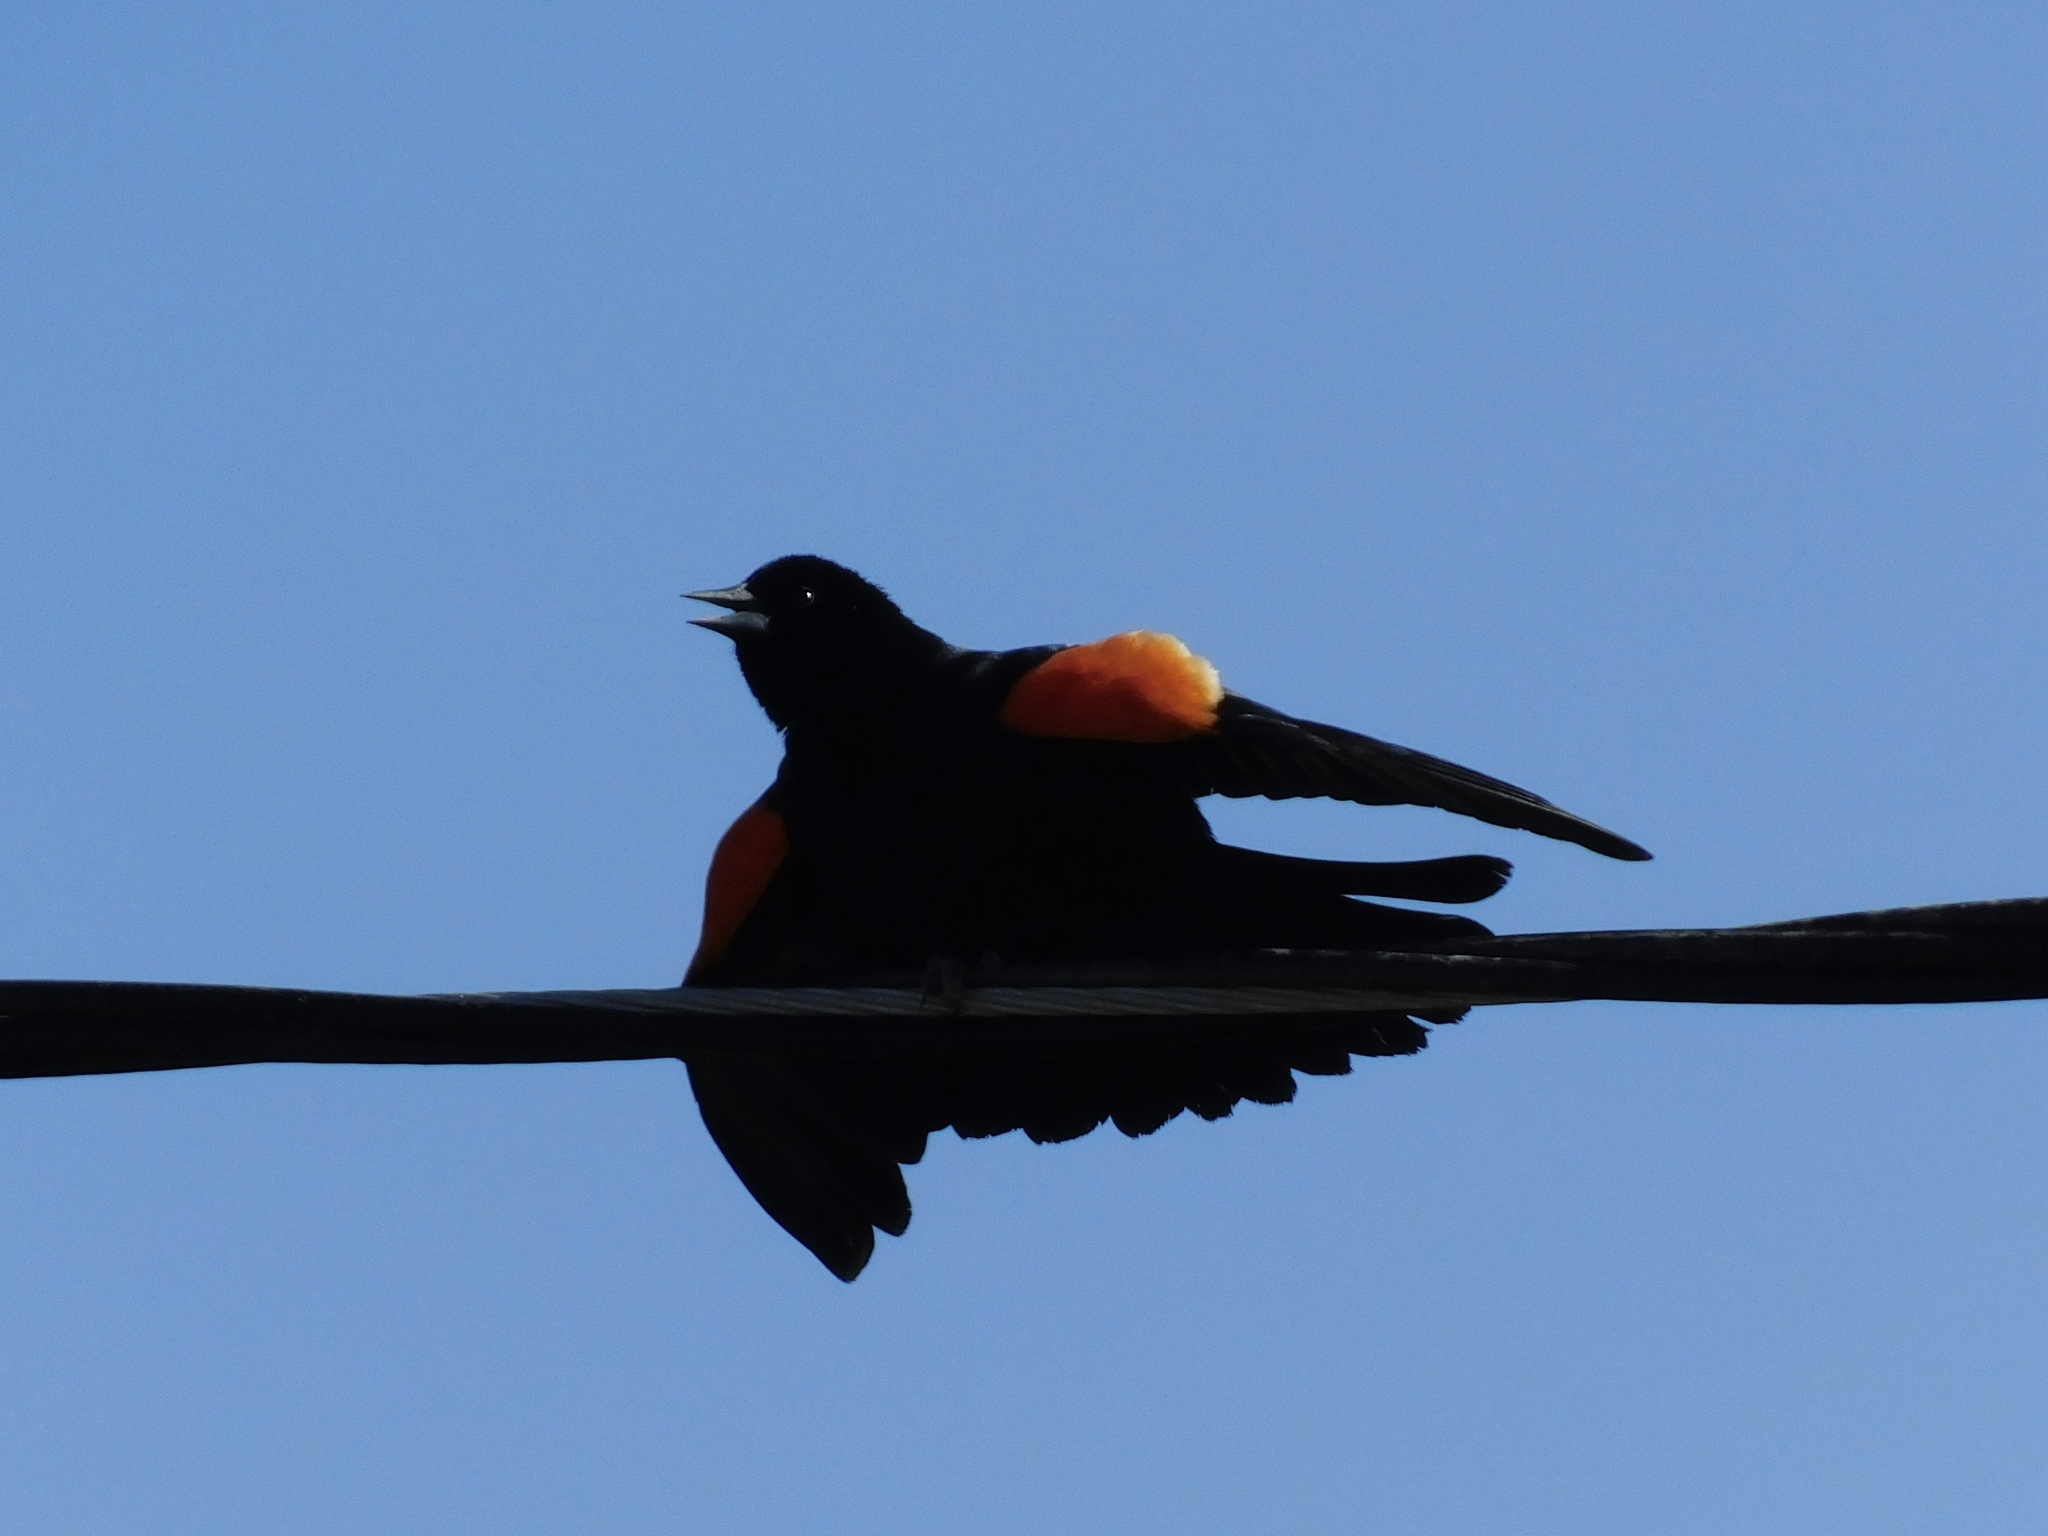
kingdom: Animalia
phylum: Chordata
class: Aves
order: Passeriformes
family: Icteridae
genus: Agelaius
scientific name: Agelaius phoeniceus
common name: Red-winged blackbird
